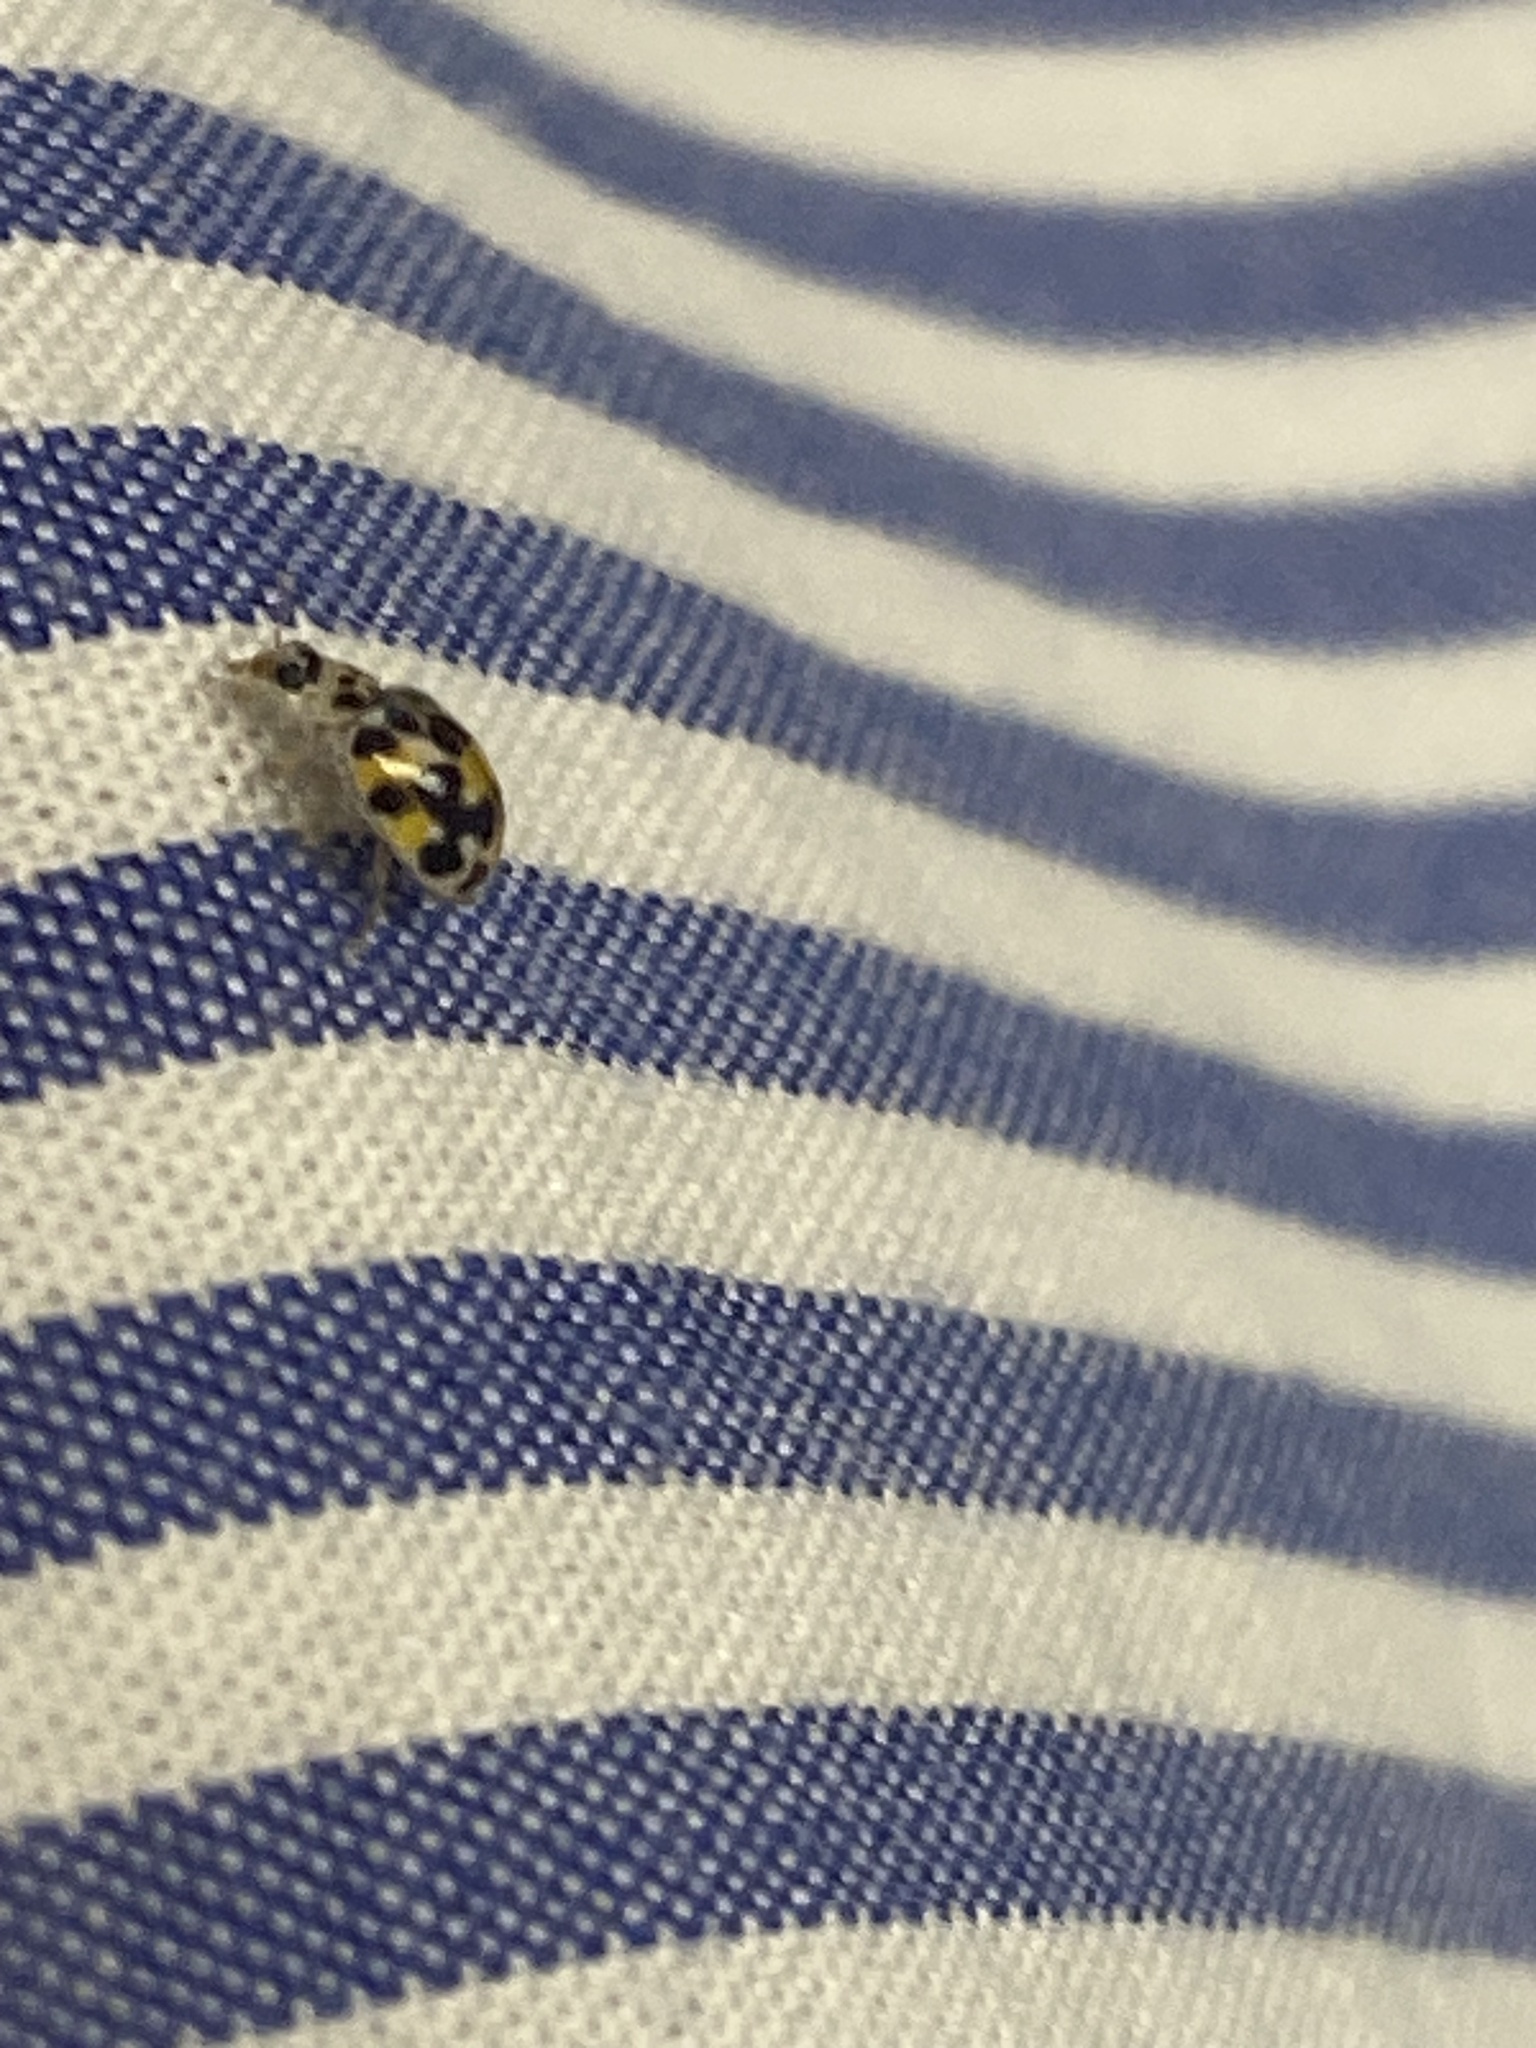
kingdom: Animalia
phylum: Arthropoda
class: Insecta
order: Coleoptera
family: Coccinellidae
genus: Psyllobora
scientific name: Psyllobora vigintimaculata
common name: Ladybird beetle
